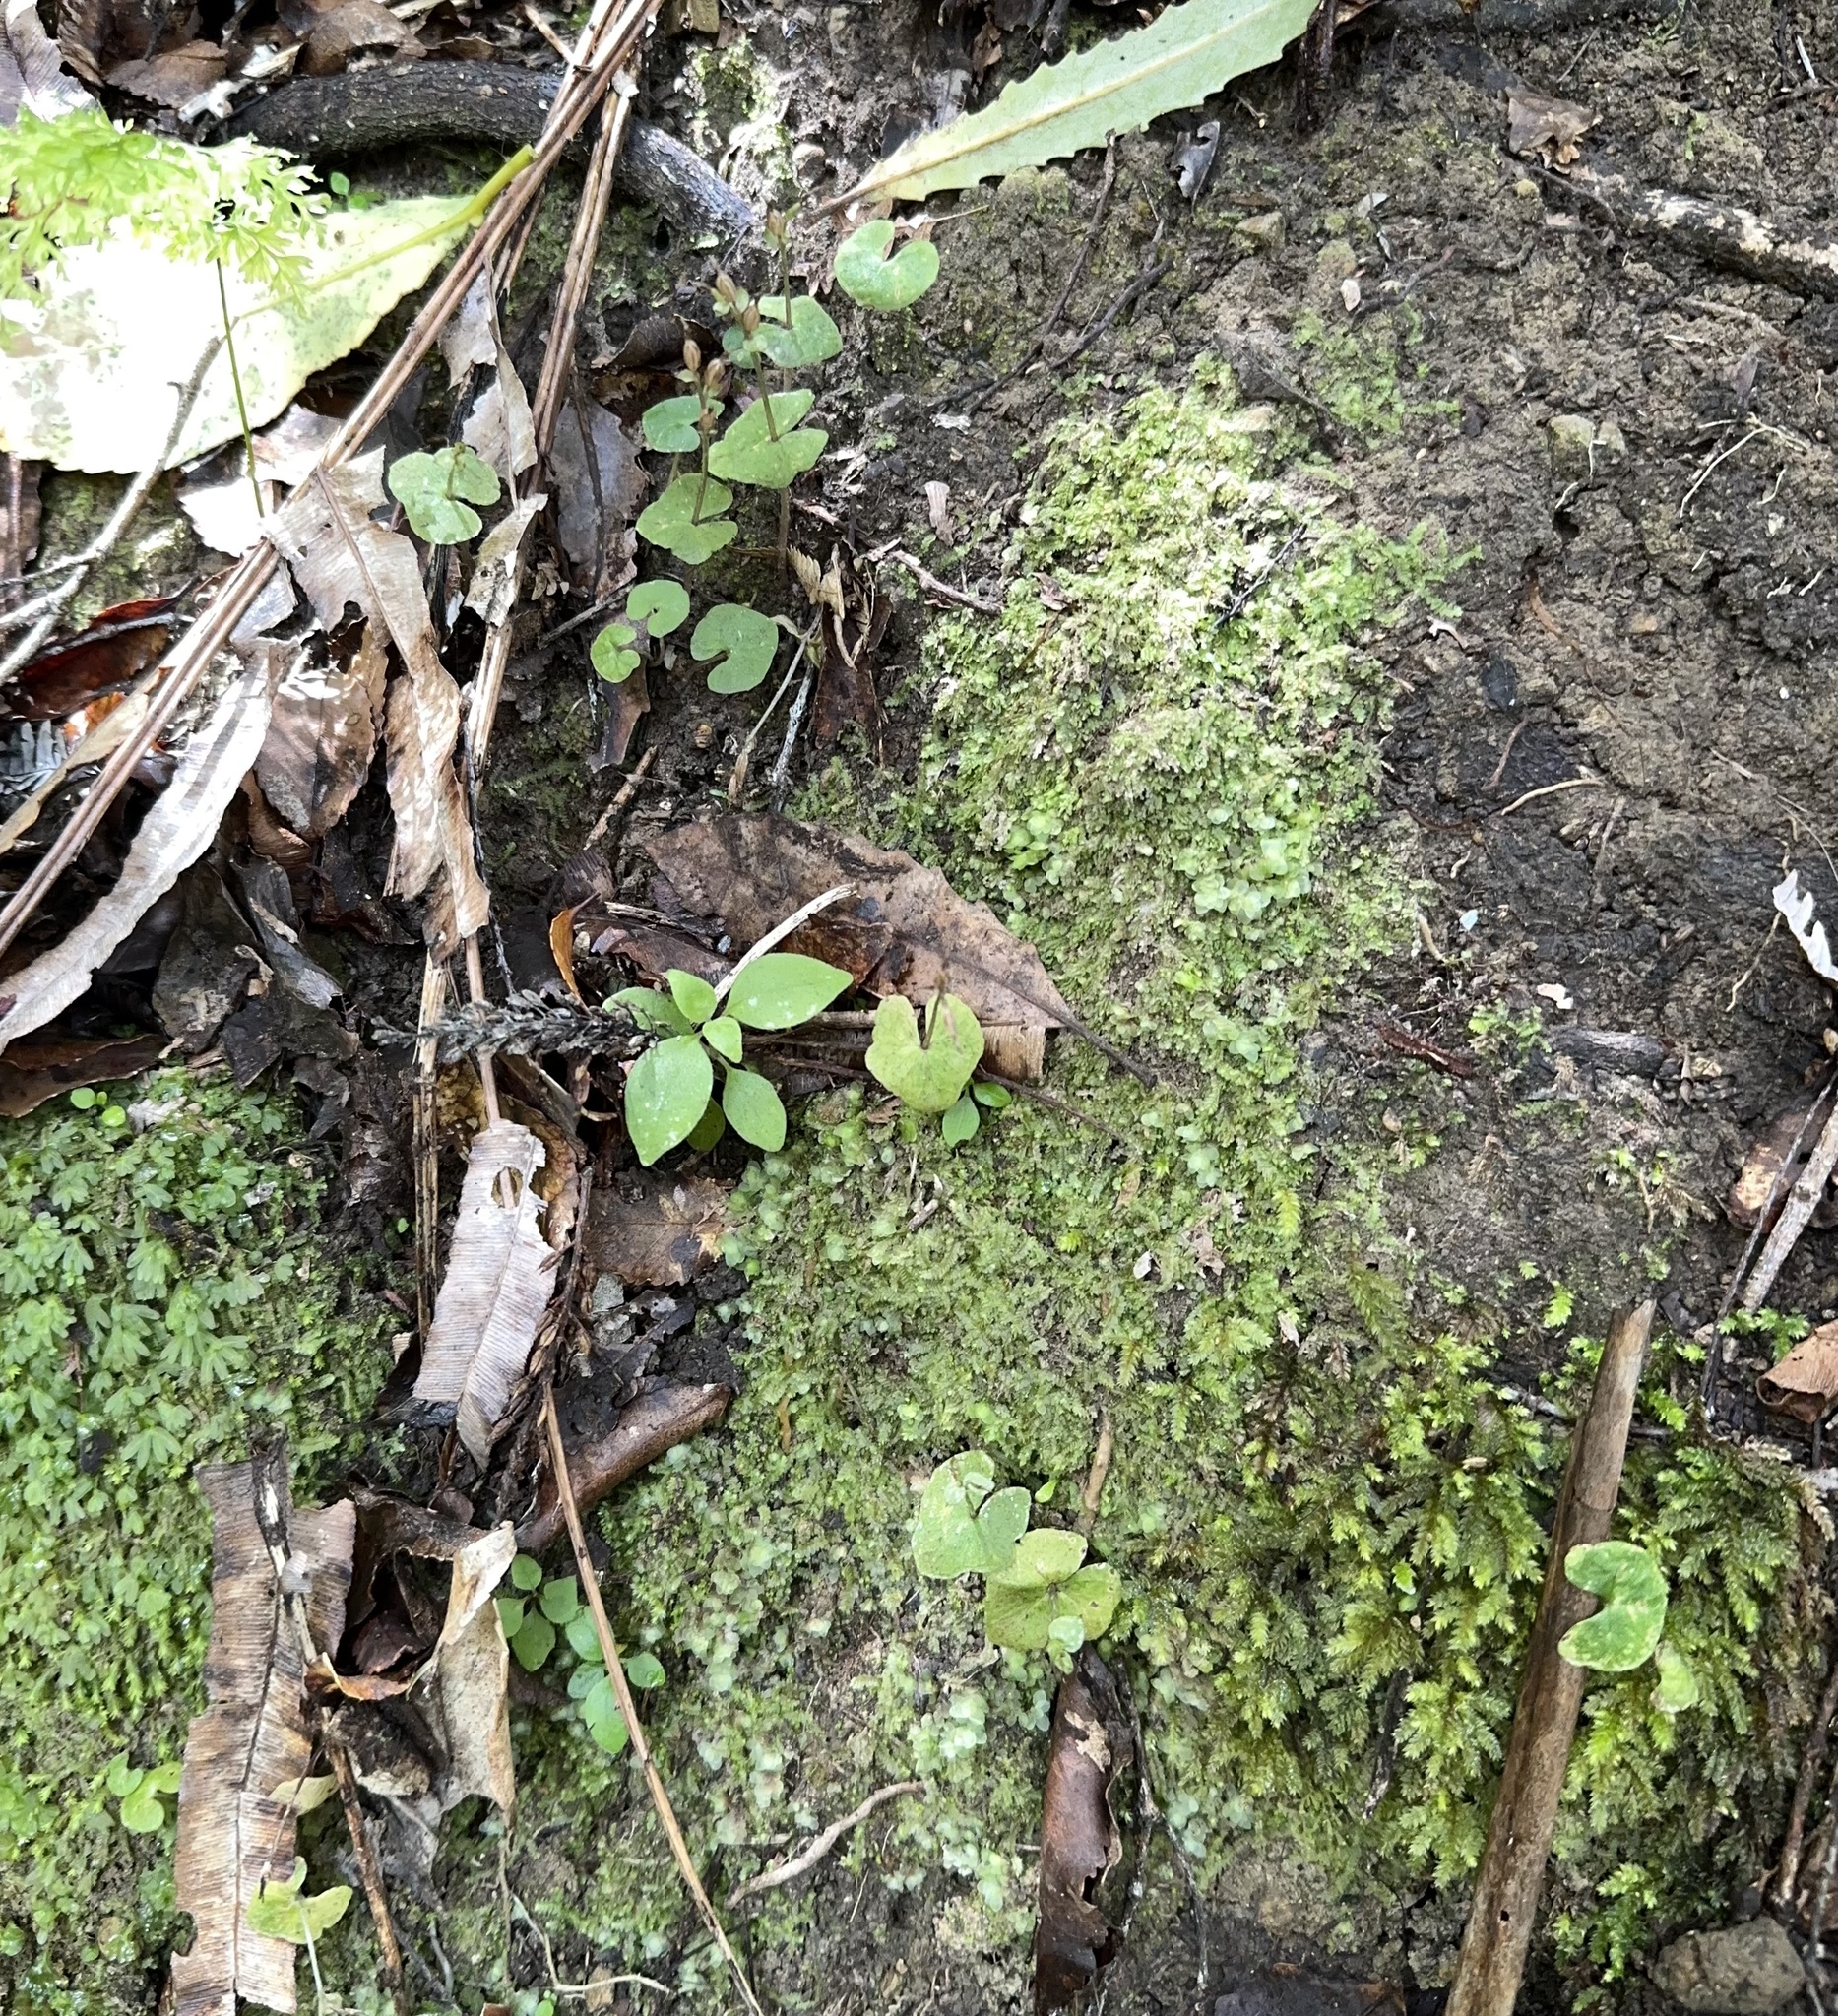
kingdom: Plantae
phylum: Tracheophyta
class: Liliopsida
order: Asparagales
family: Orchidaceae
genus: Acianthus
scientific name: Acianthus sinclairii
